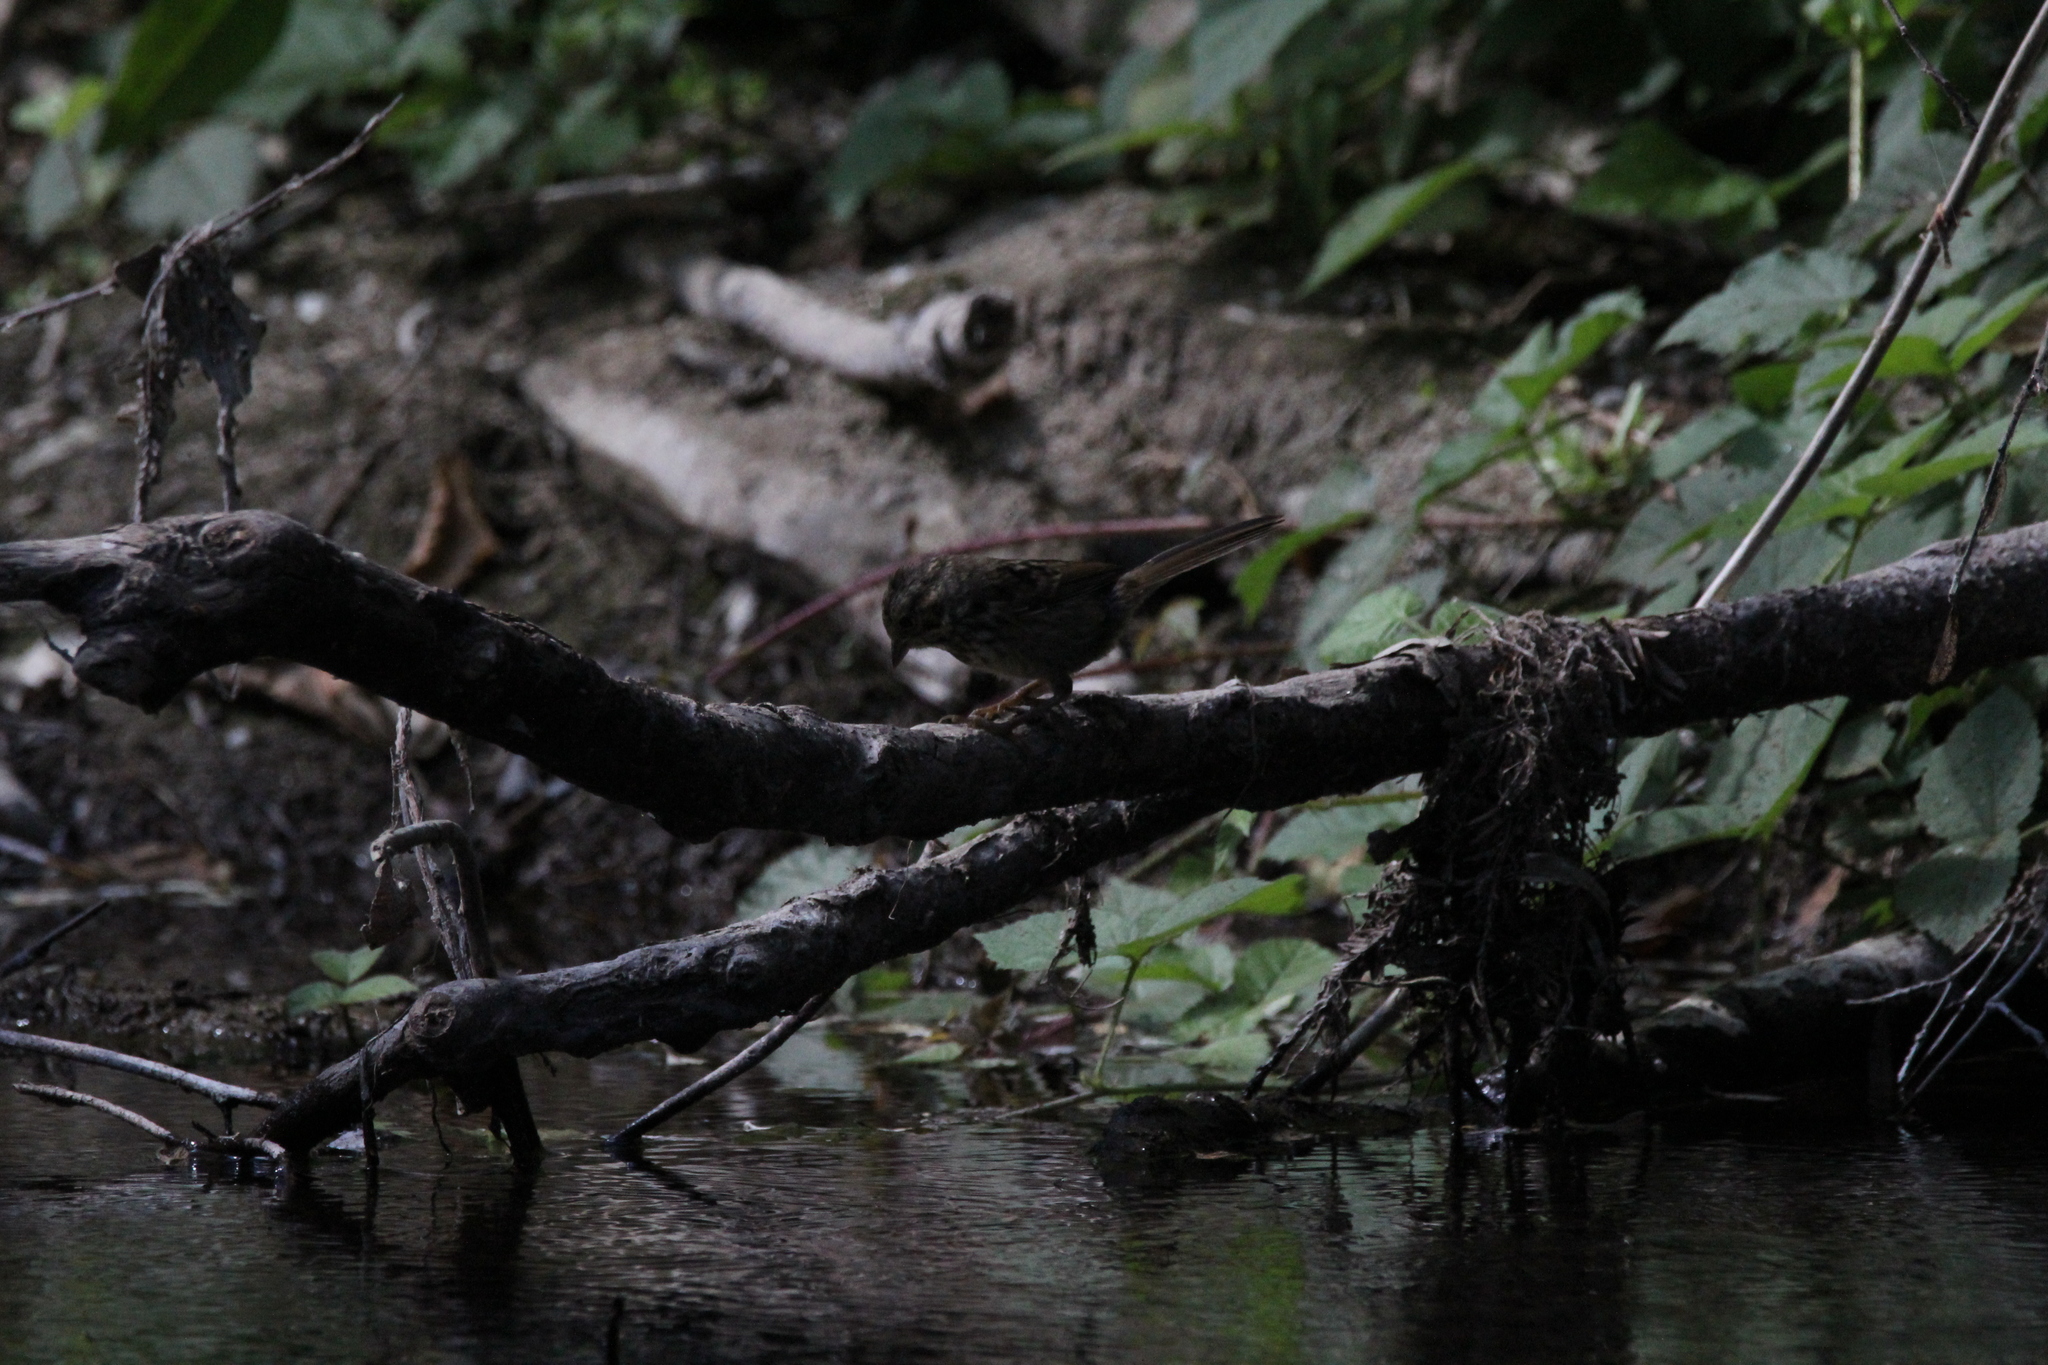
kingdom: Animalia
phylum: Chordata
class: Aves
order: Passeriformes
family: Passerellidae
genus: Melospiza
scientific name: Melospiza melodia
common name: Song sparrow
